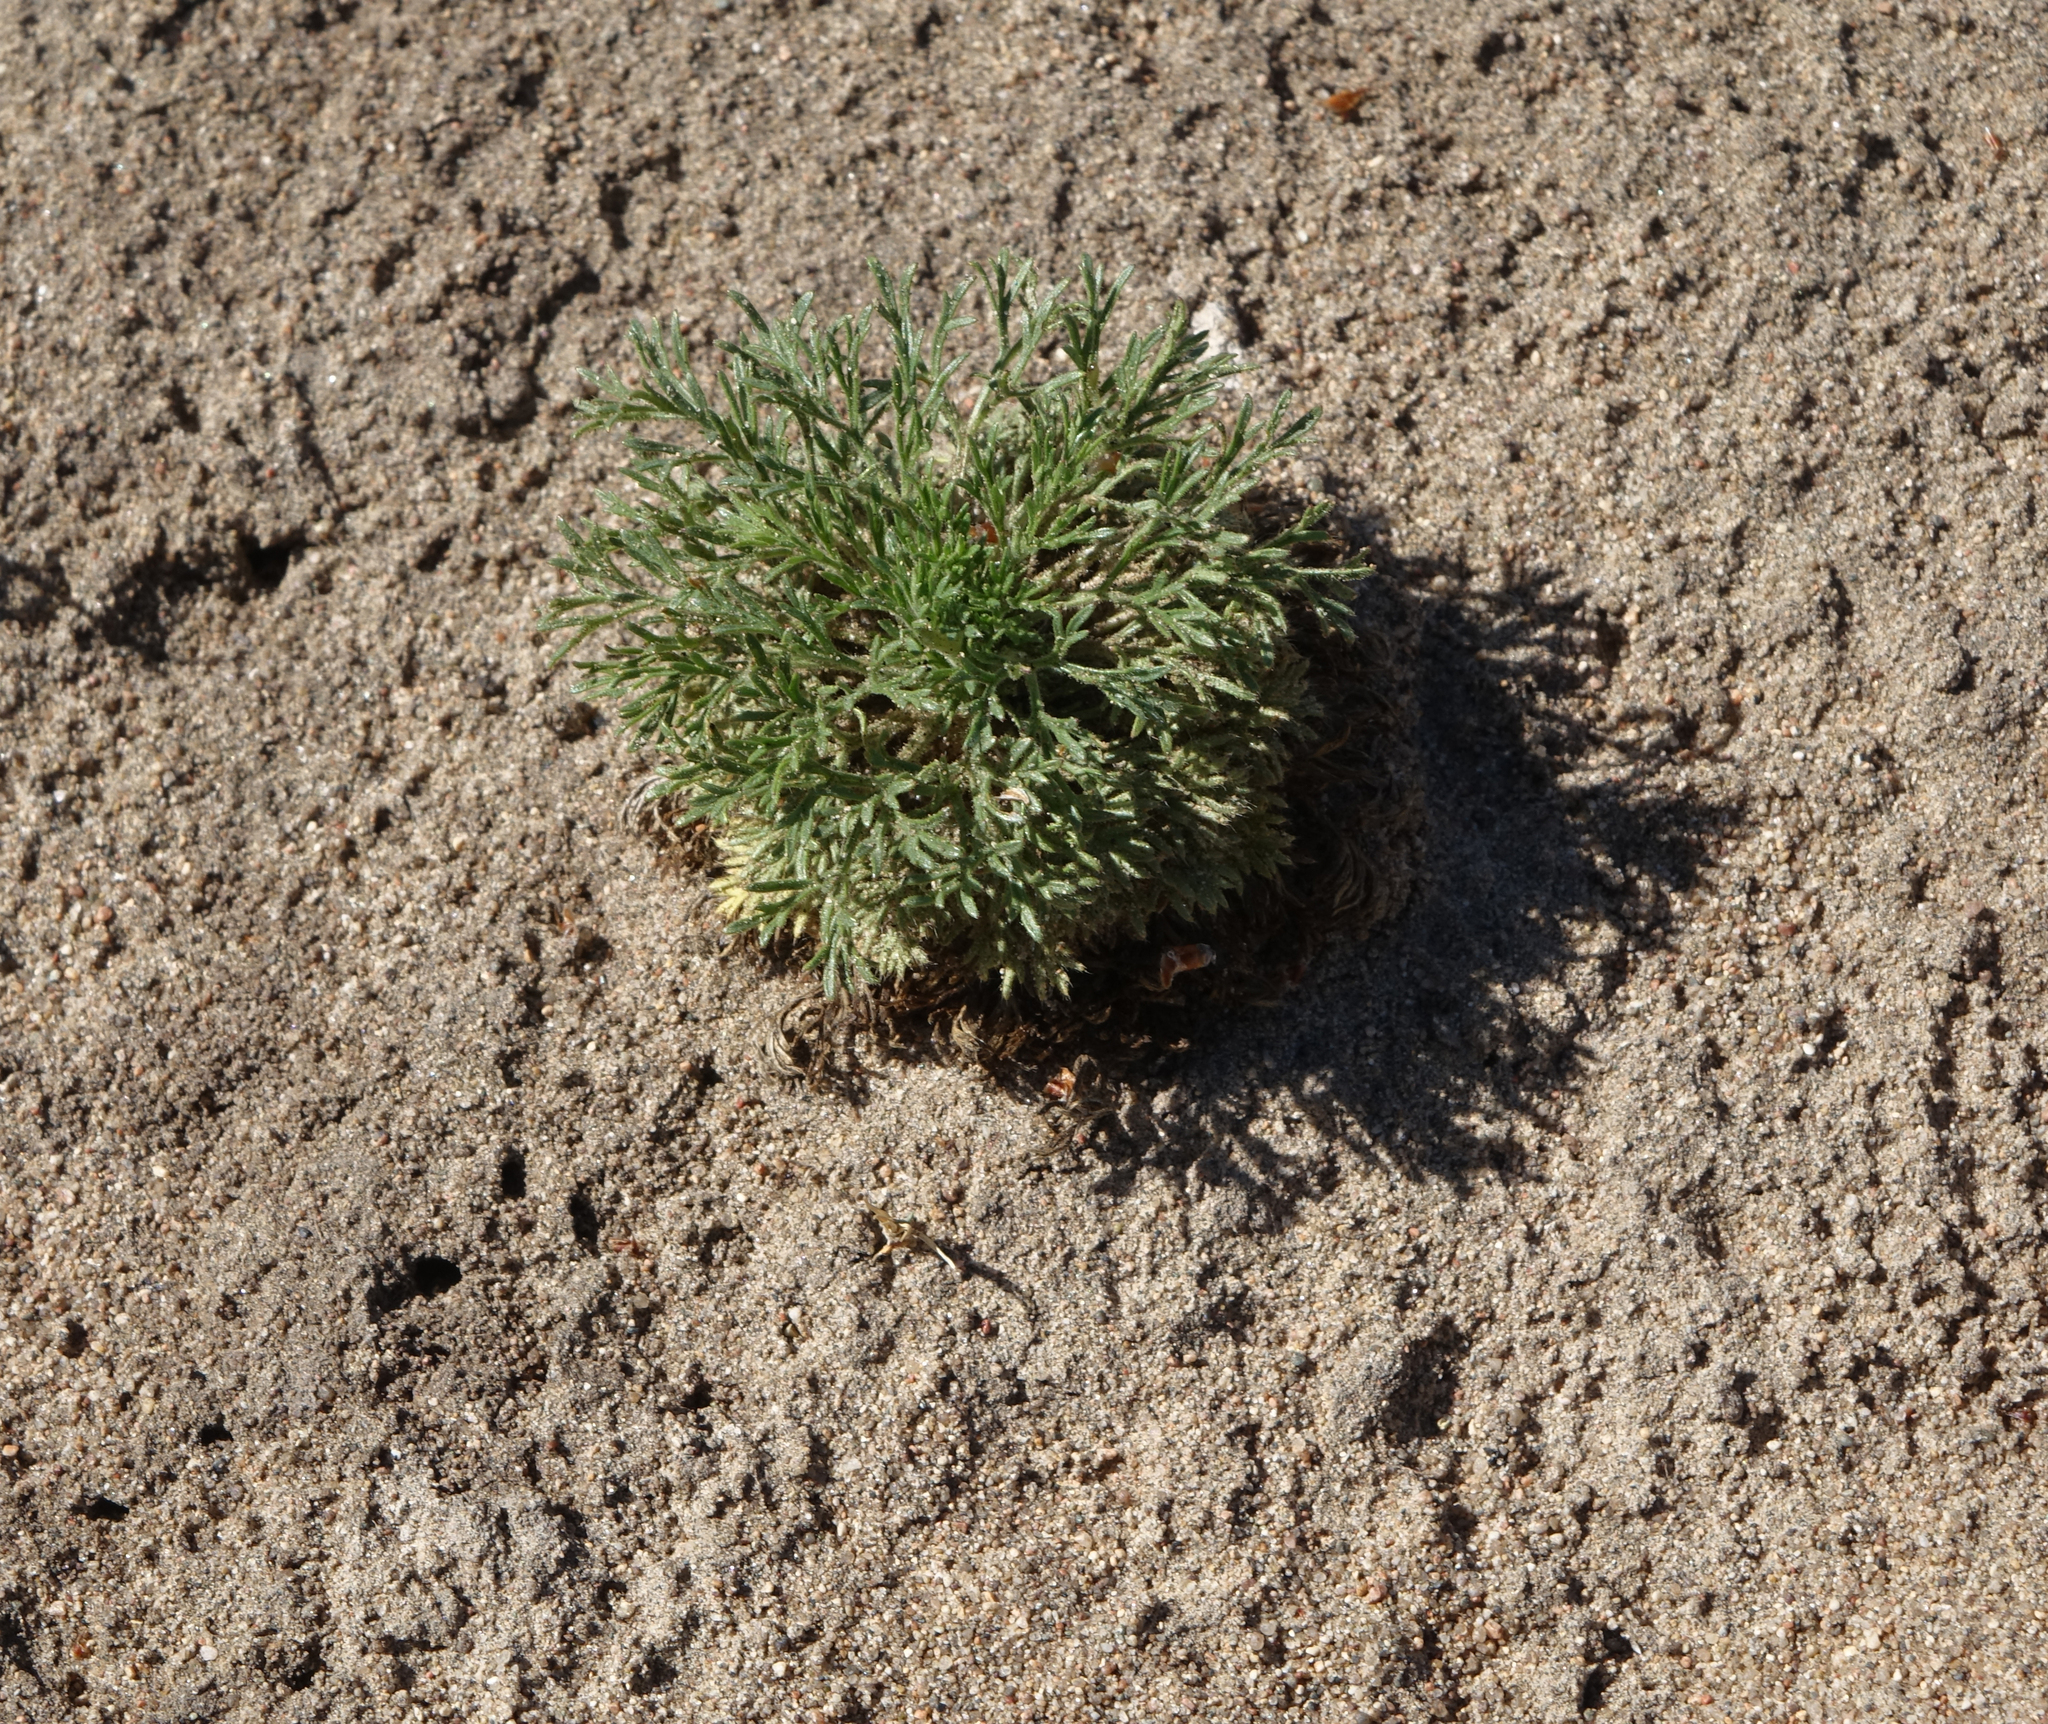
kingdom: Plantae
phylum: Tracheophyta
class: Magnoliopsida
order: Rosales
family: Rosaceae
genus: Chamaerhodos
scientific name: Chamaerhodos erecta
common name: American chamaerhodos
